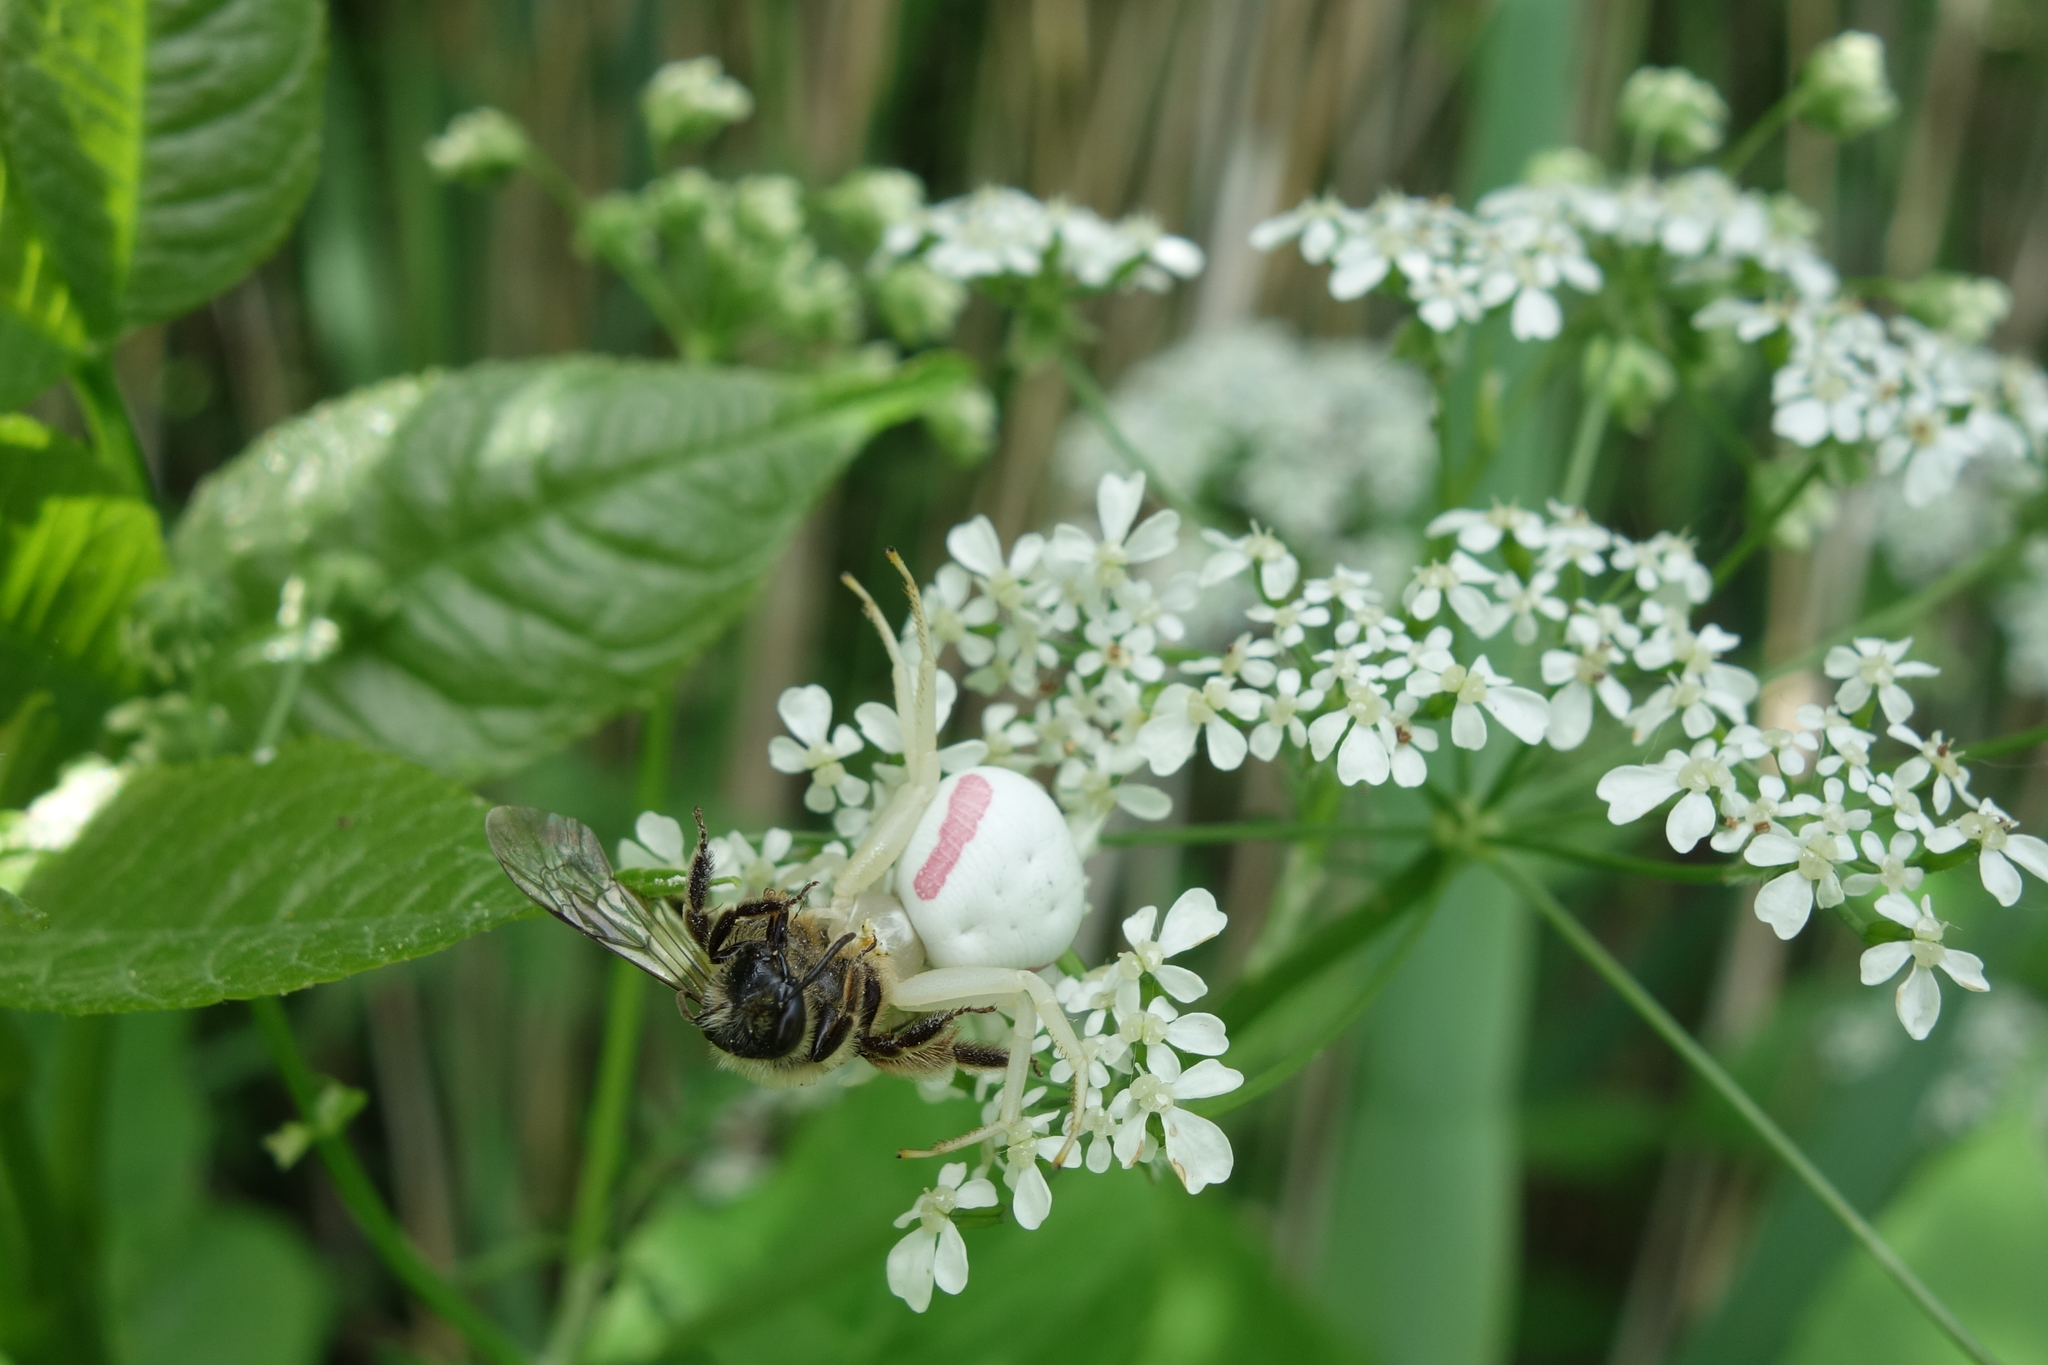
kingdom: Animalia
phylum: Arthropoda
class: Arachnida
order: Araneae
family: Thomisidae
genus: Misumena
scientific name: Misumena vatia
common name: Goldenrod crab spider
